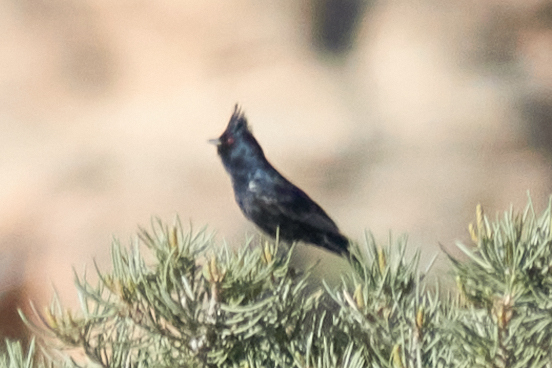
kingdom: Animalia
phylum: Chordata
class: Aves
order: Passeriformes
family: Ptilogonatidae
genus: Phainopepla
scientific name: Phainopepla nitens
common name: Phainopepla
